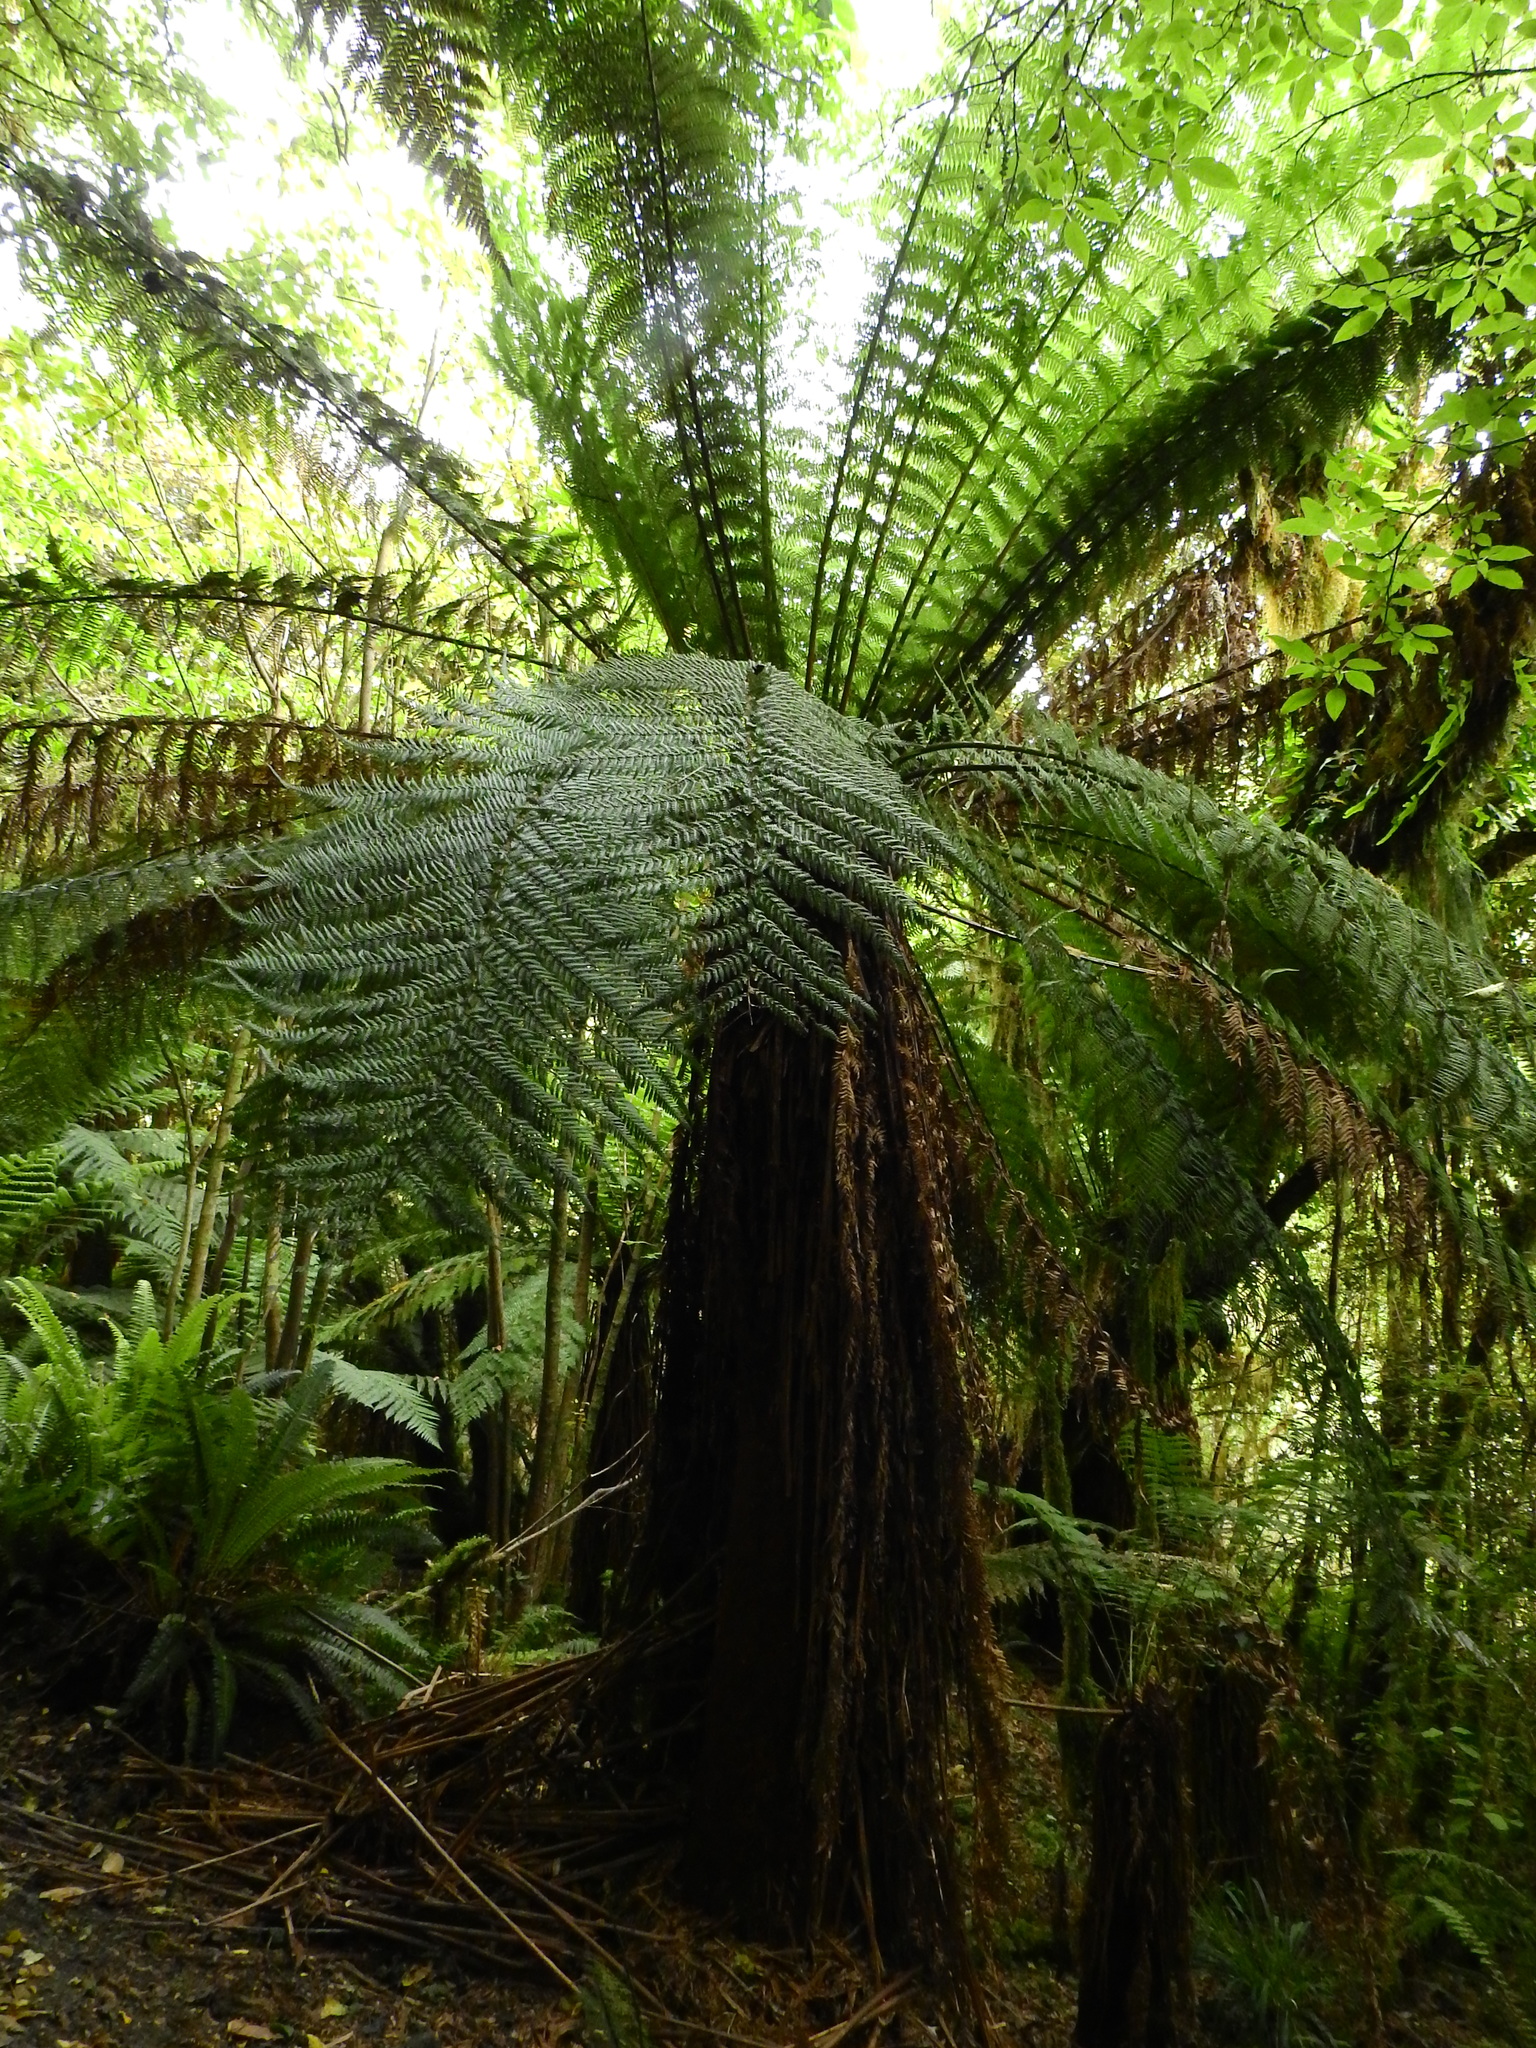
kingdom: Plantae
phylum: Tracheophyta
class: Polypodiopsida
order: Cyatheales
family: Dicksoniaceae
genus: Dicksonia
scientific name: Dicksonia fibrosa
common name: Golden tree fern
